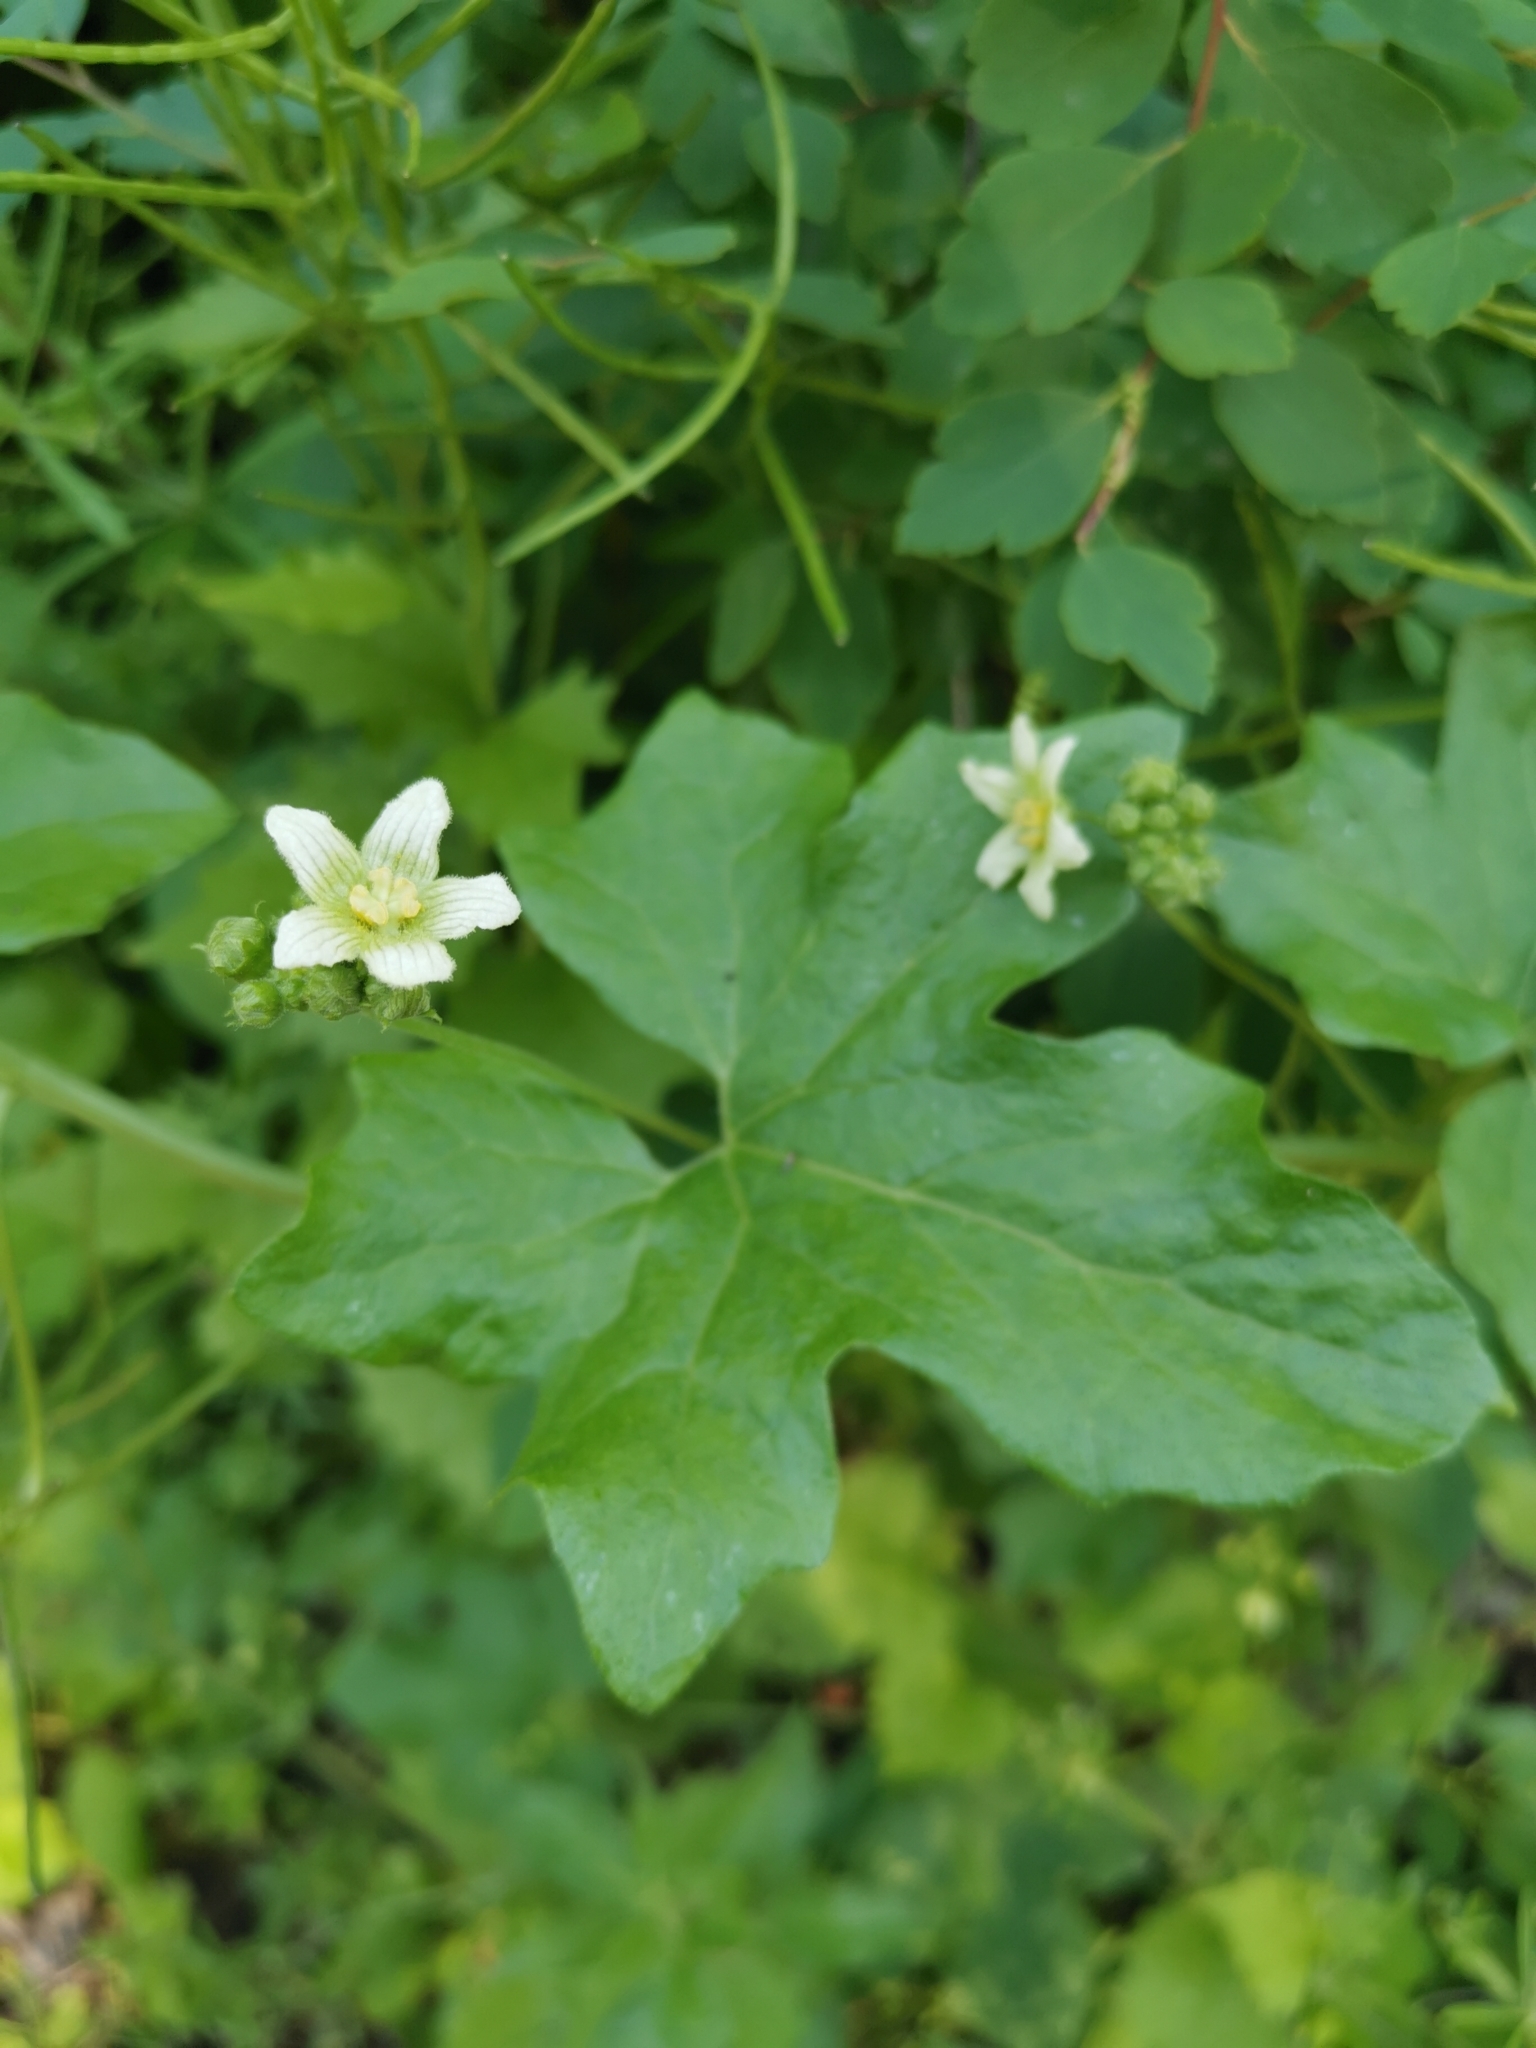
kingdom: Plantae
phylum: Tracheophyta
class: Magnoliopsida
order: Cucurbitales
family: Cucurbitaceae
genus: Bryonia
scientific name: Bryonia cretica
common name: Cretan bryony
